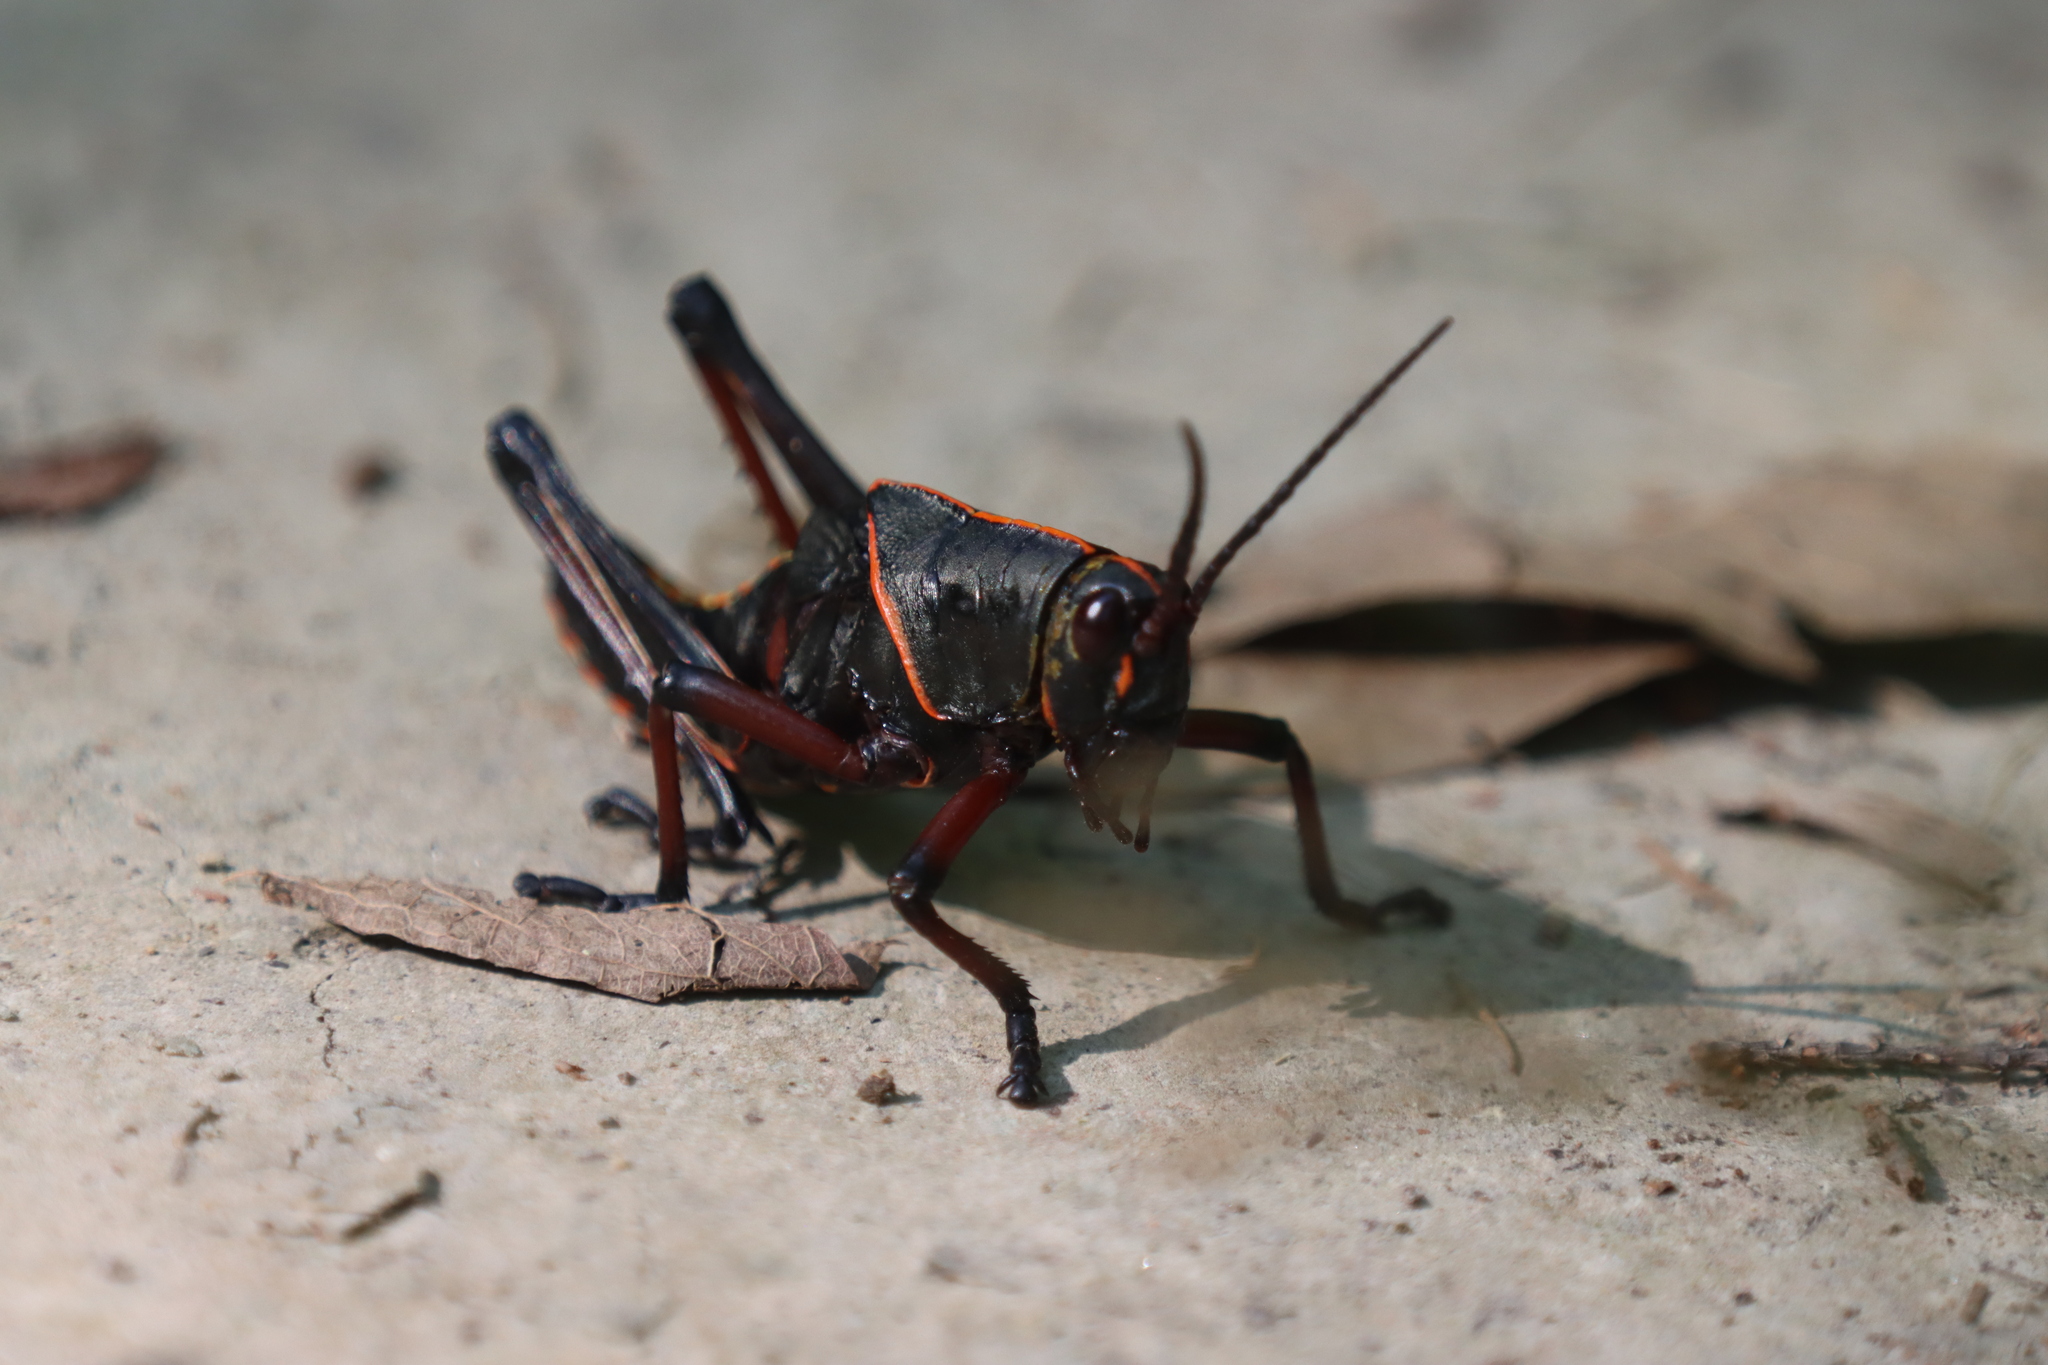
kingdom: Animalia
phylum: Arthropoda
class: Insecta
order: Orthoptera
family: Romaleidae
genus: Romalea
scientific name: Romalea microptera
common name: Eastern lubber grasshopper
